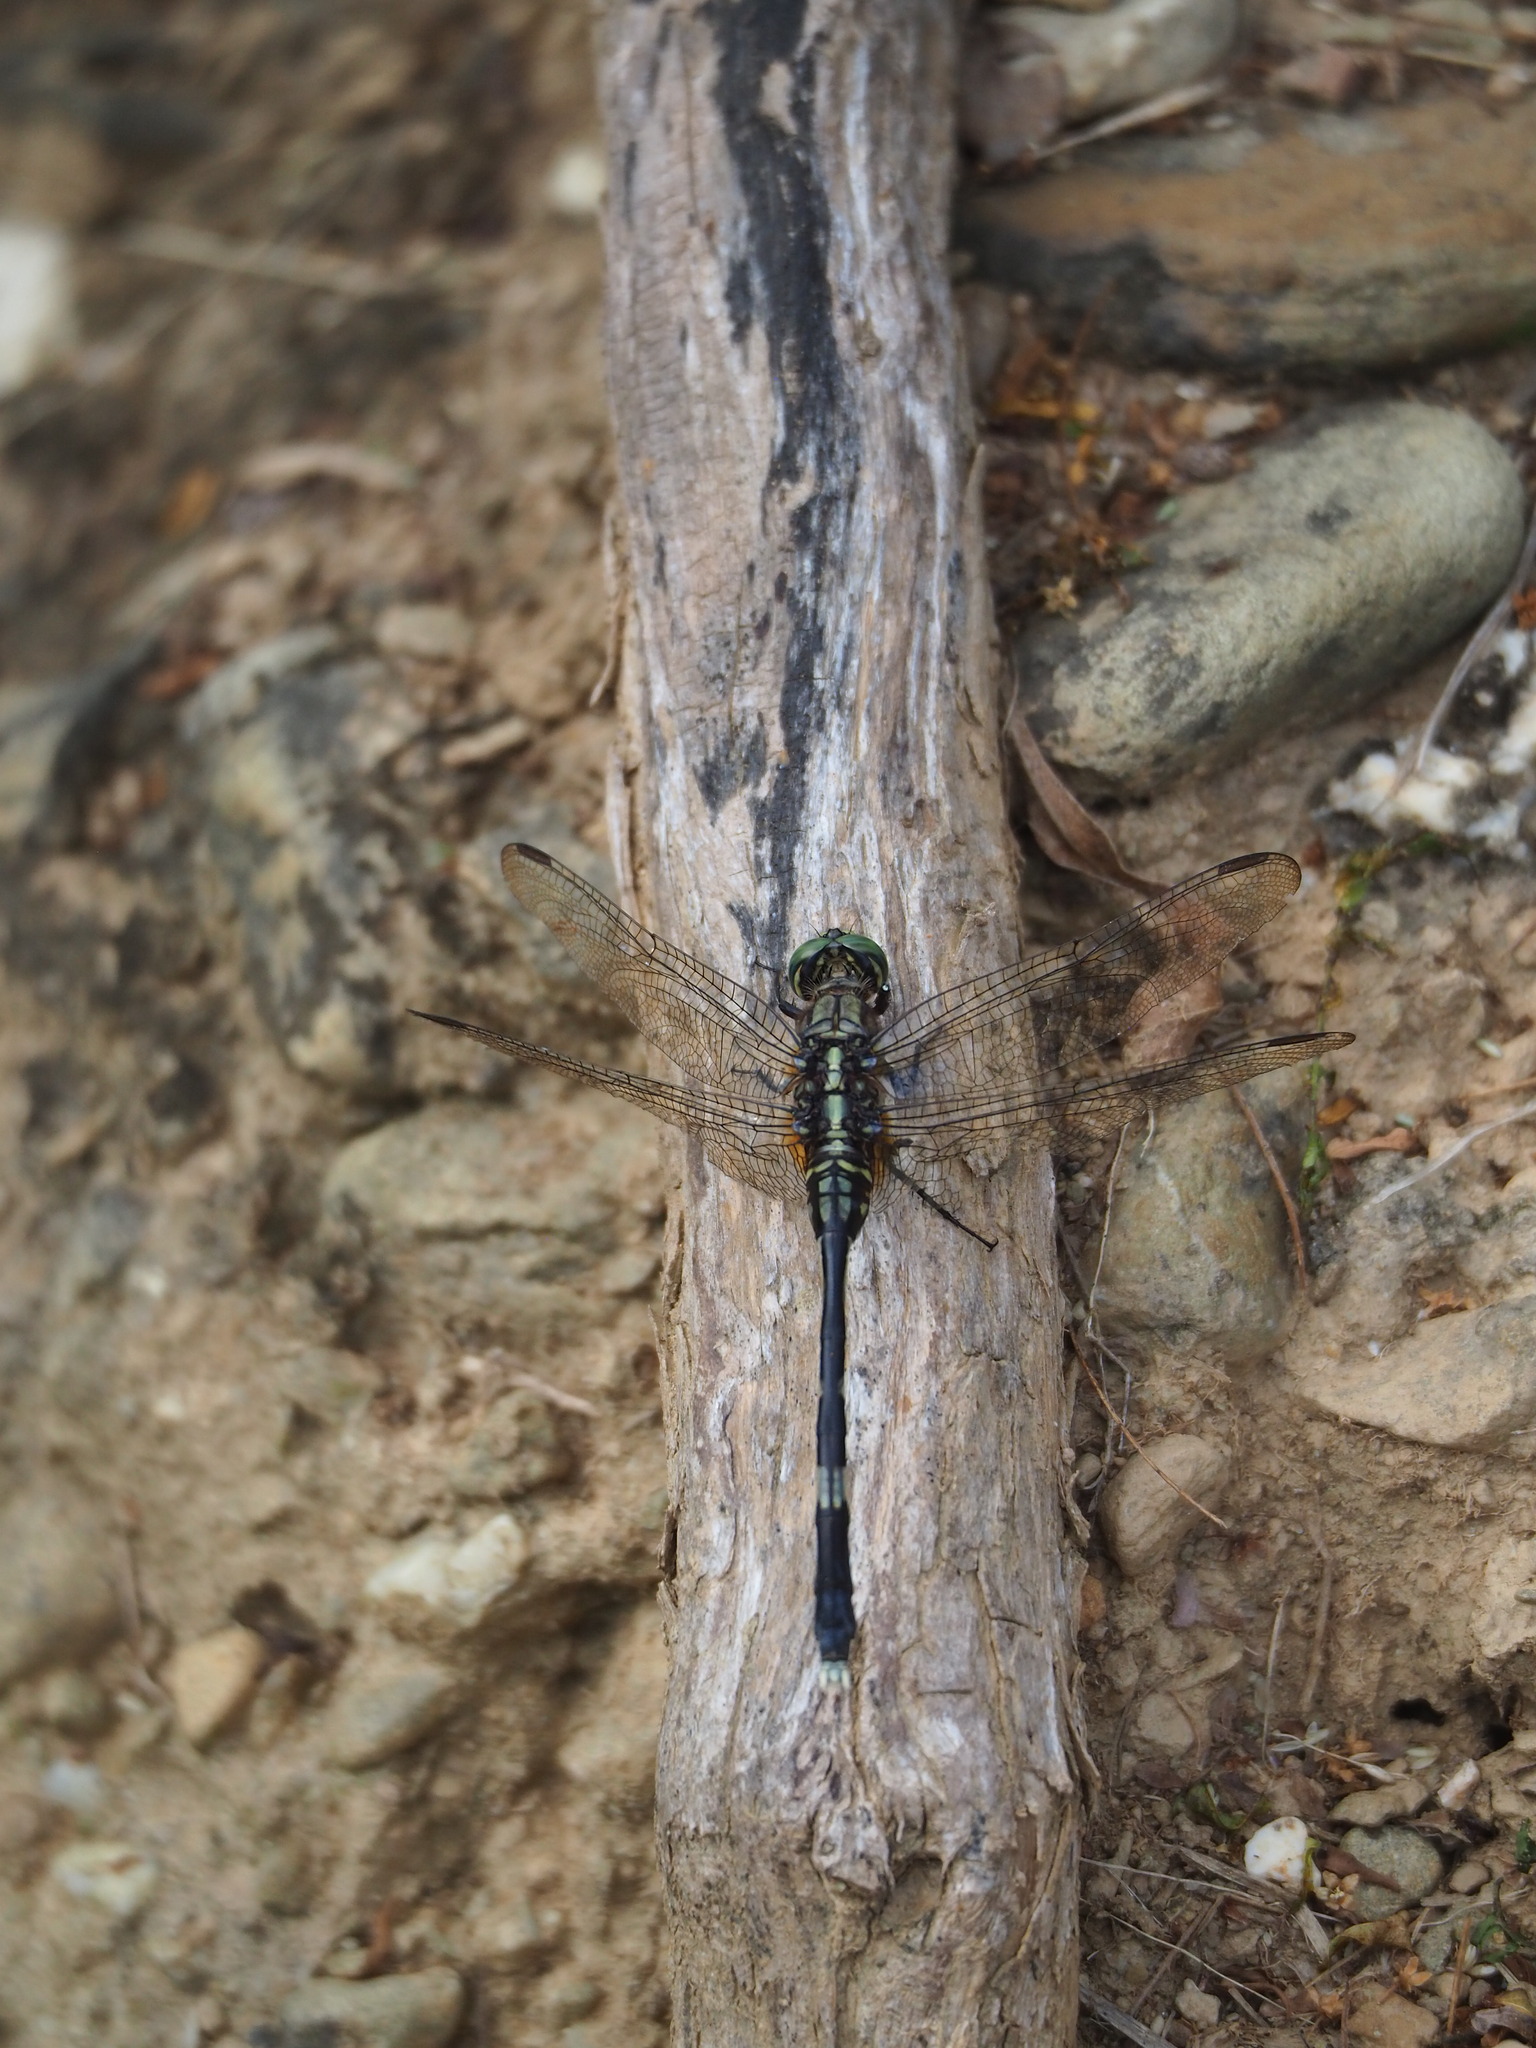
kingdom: Animalia
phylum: Arthropoda
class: Insecta
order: Odonata
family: Libellulidae
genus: Orthetrum
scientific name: Orthetrum sabina
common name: Slender skimmer
